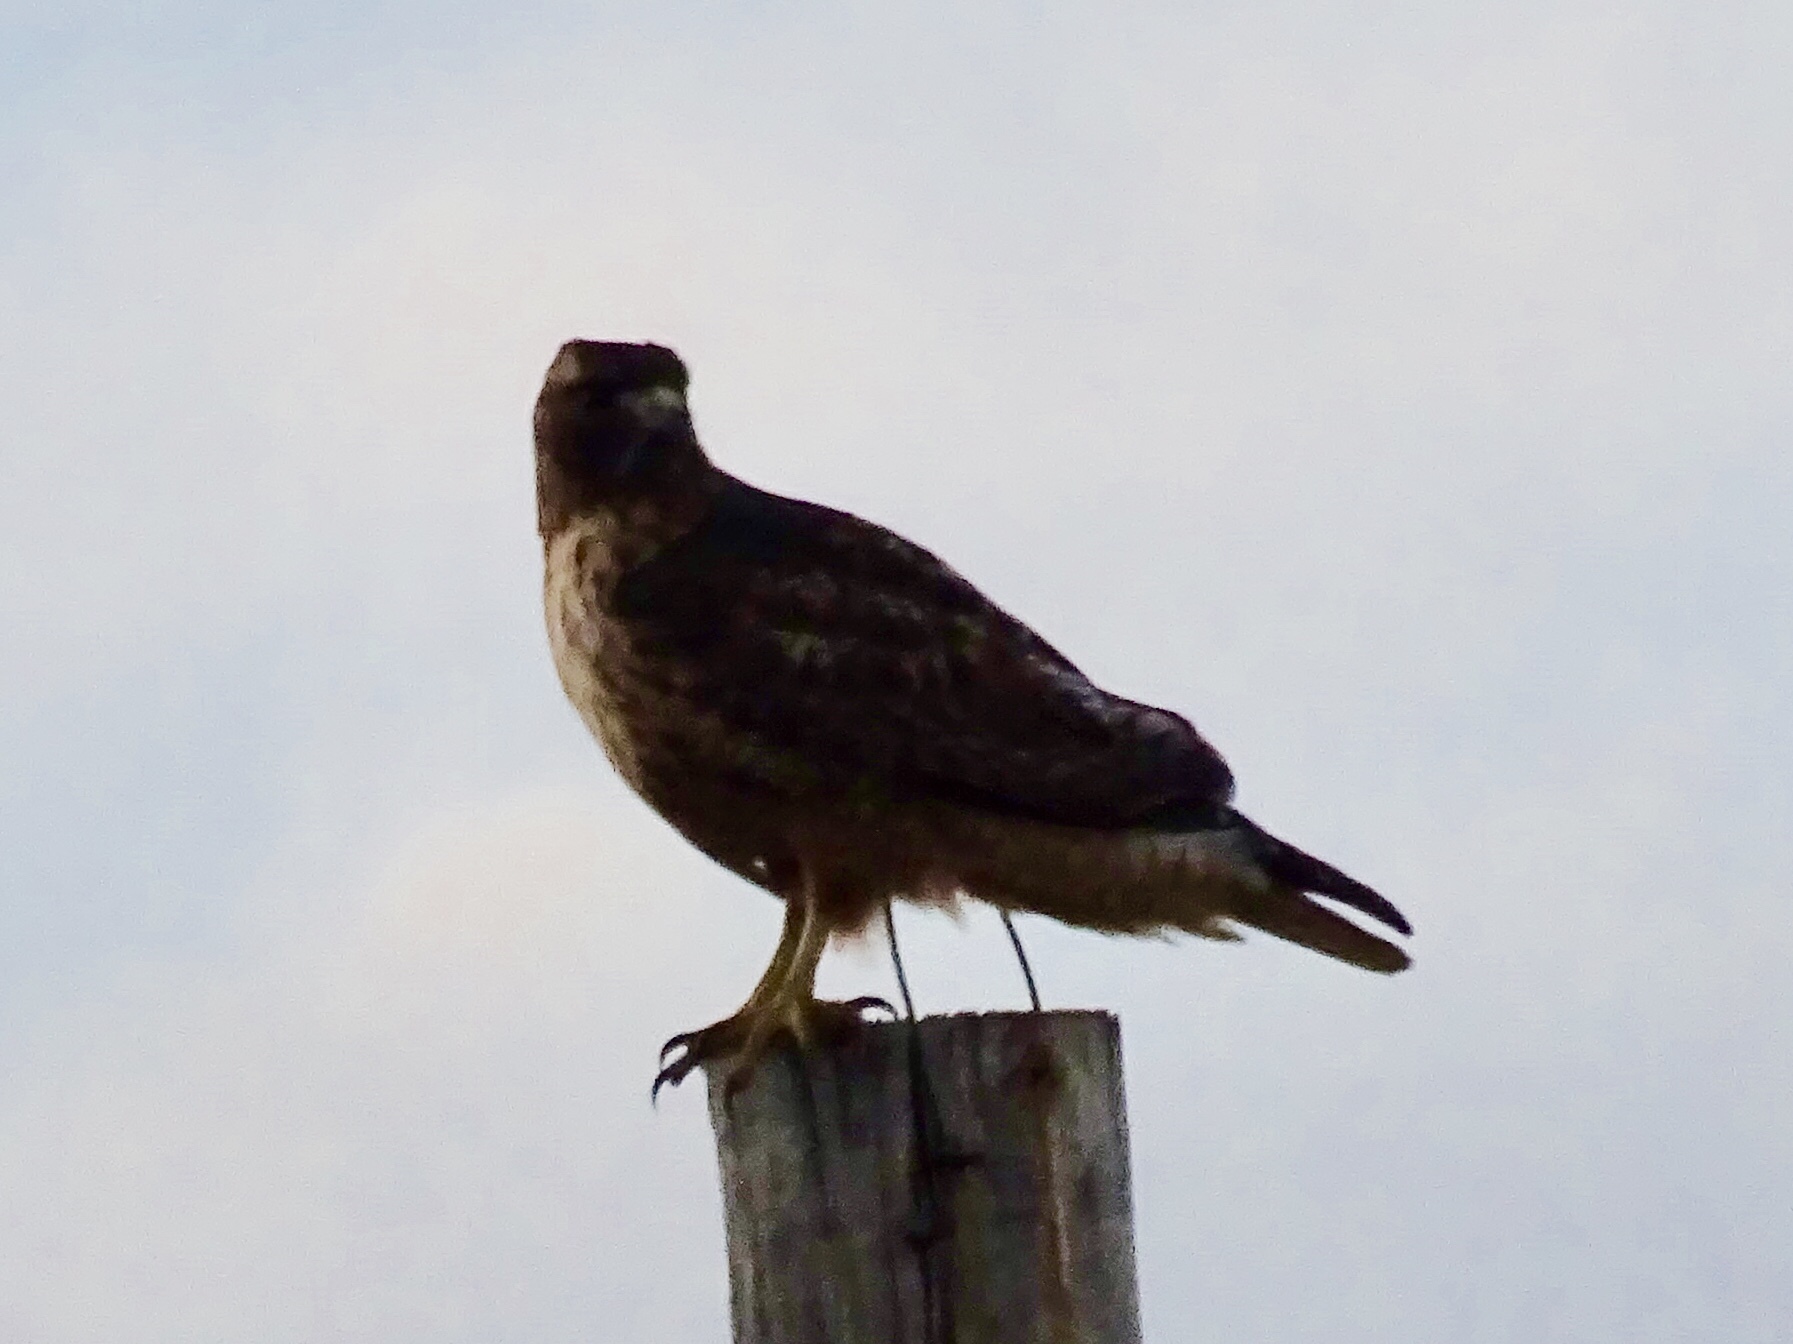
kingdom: Animalia
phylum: Chordata
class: Aves
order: Accipitriformes
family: Accipitridae
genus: Buteo
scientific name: Buteo jamaicensis
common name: Red-tailed hawk
